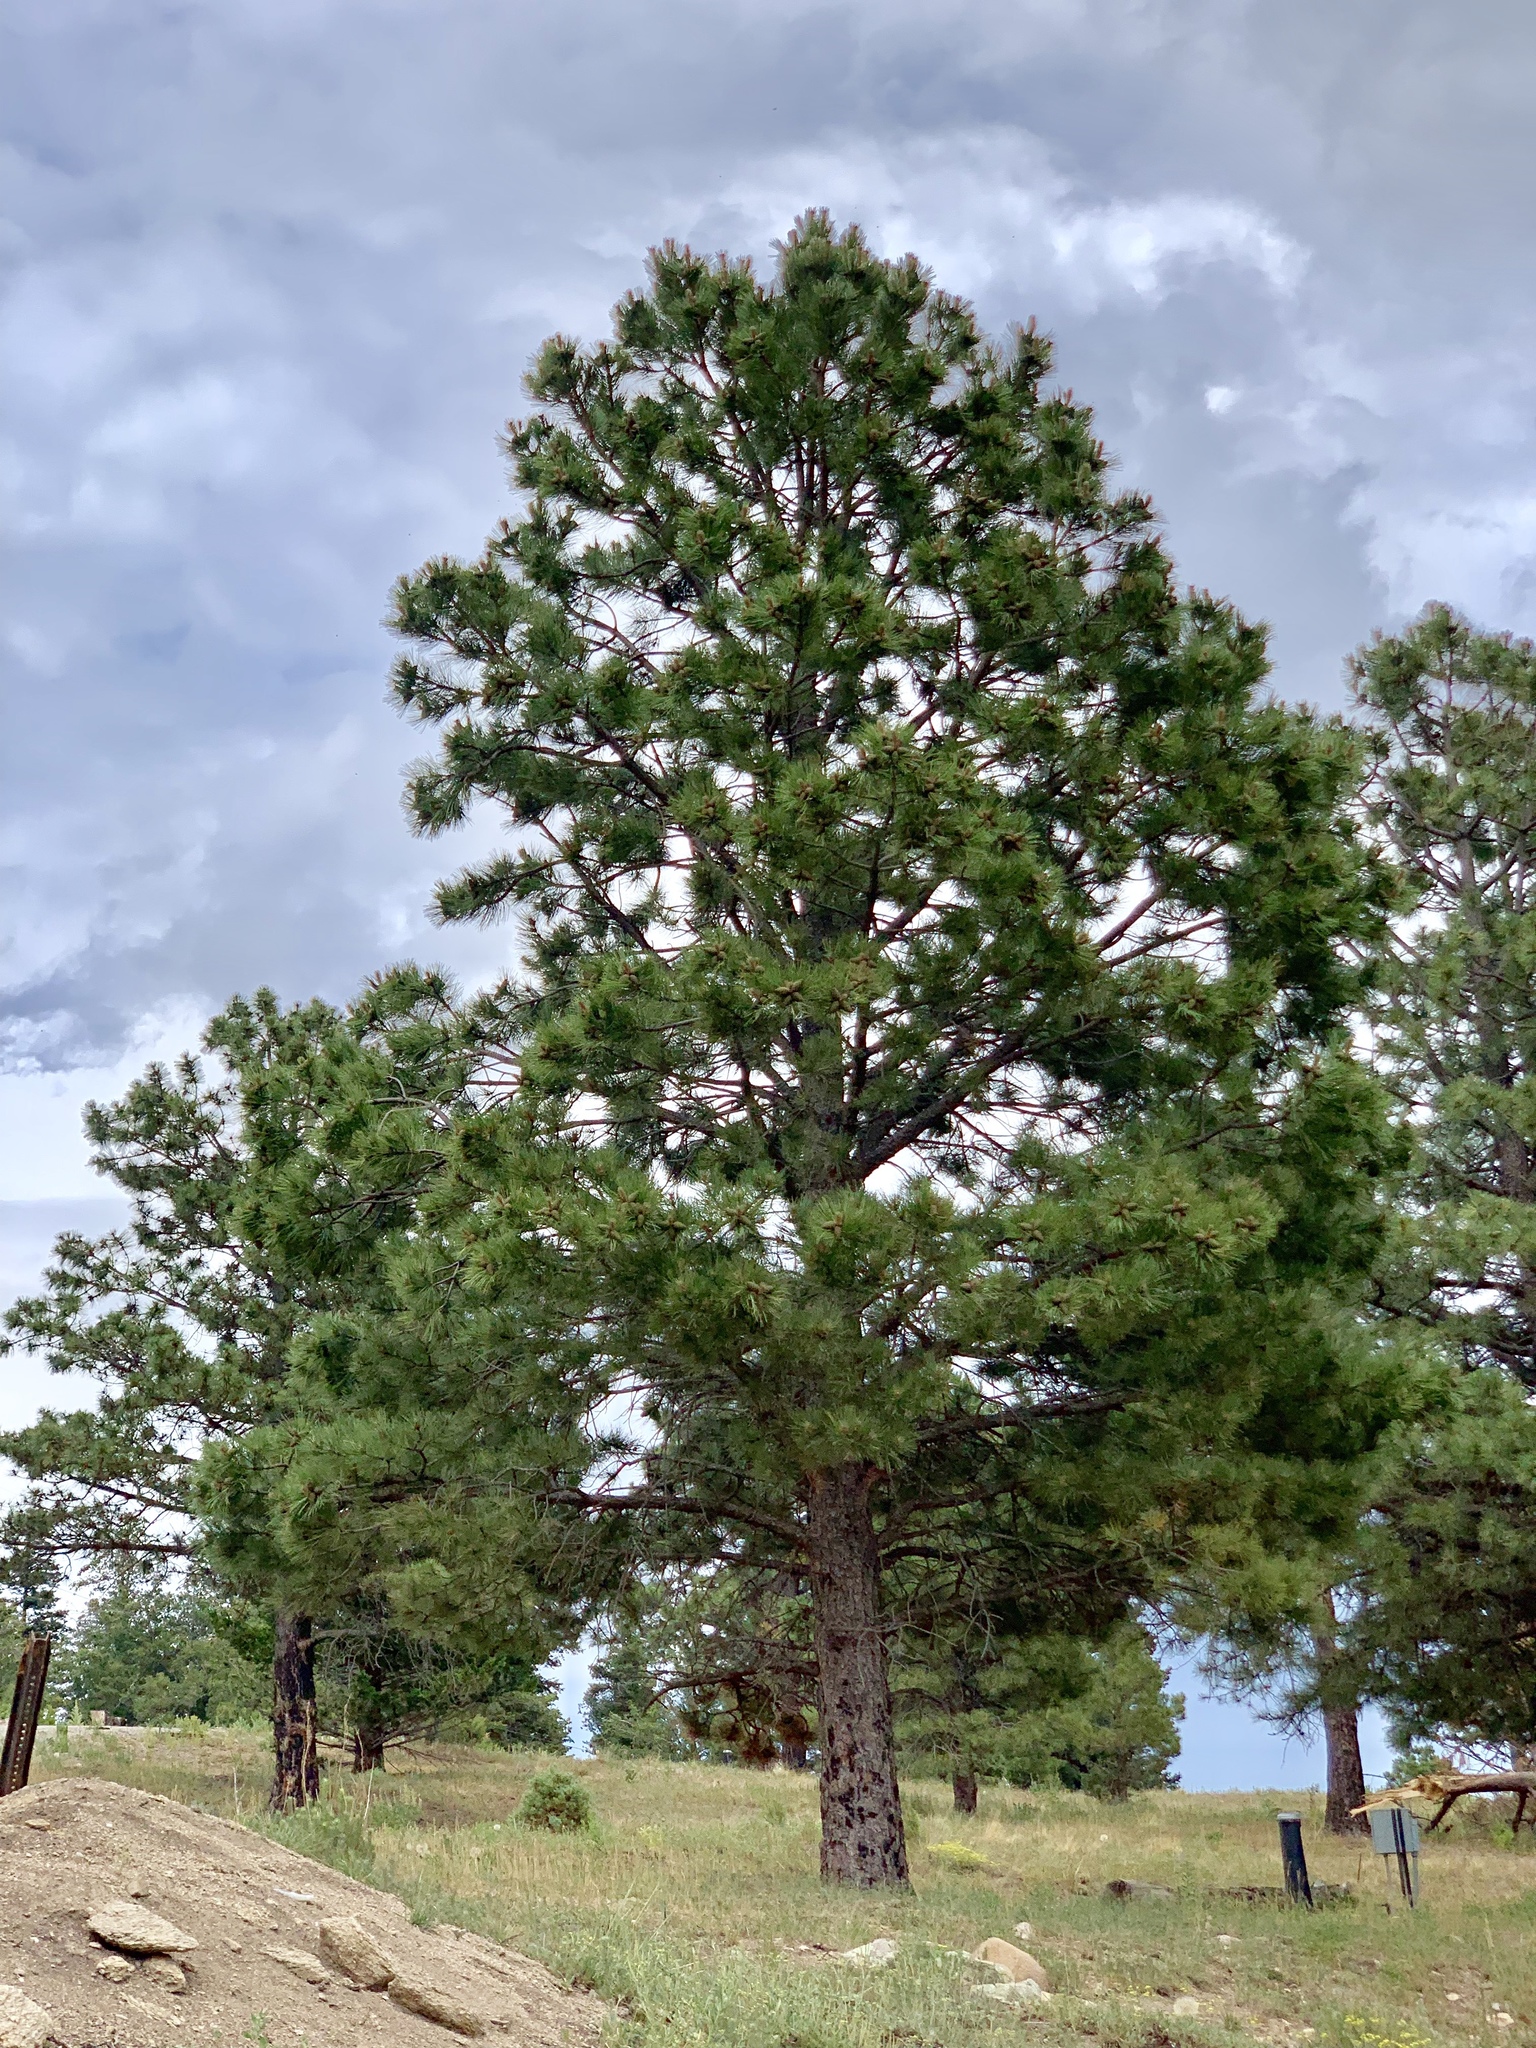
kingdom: Plantae
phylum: Tracheophyta
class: Pinopsida
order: Pinales
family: Pinaceae
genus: Pinus
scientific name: Pinus ponderosa
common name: Western yellow-pine
